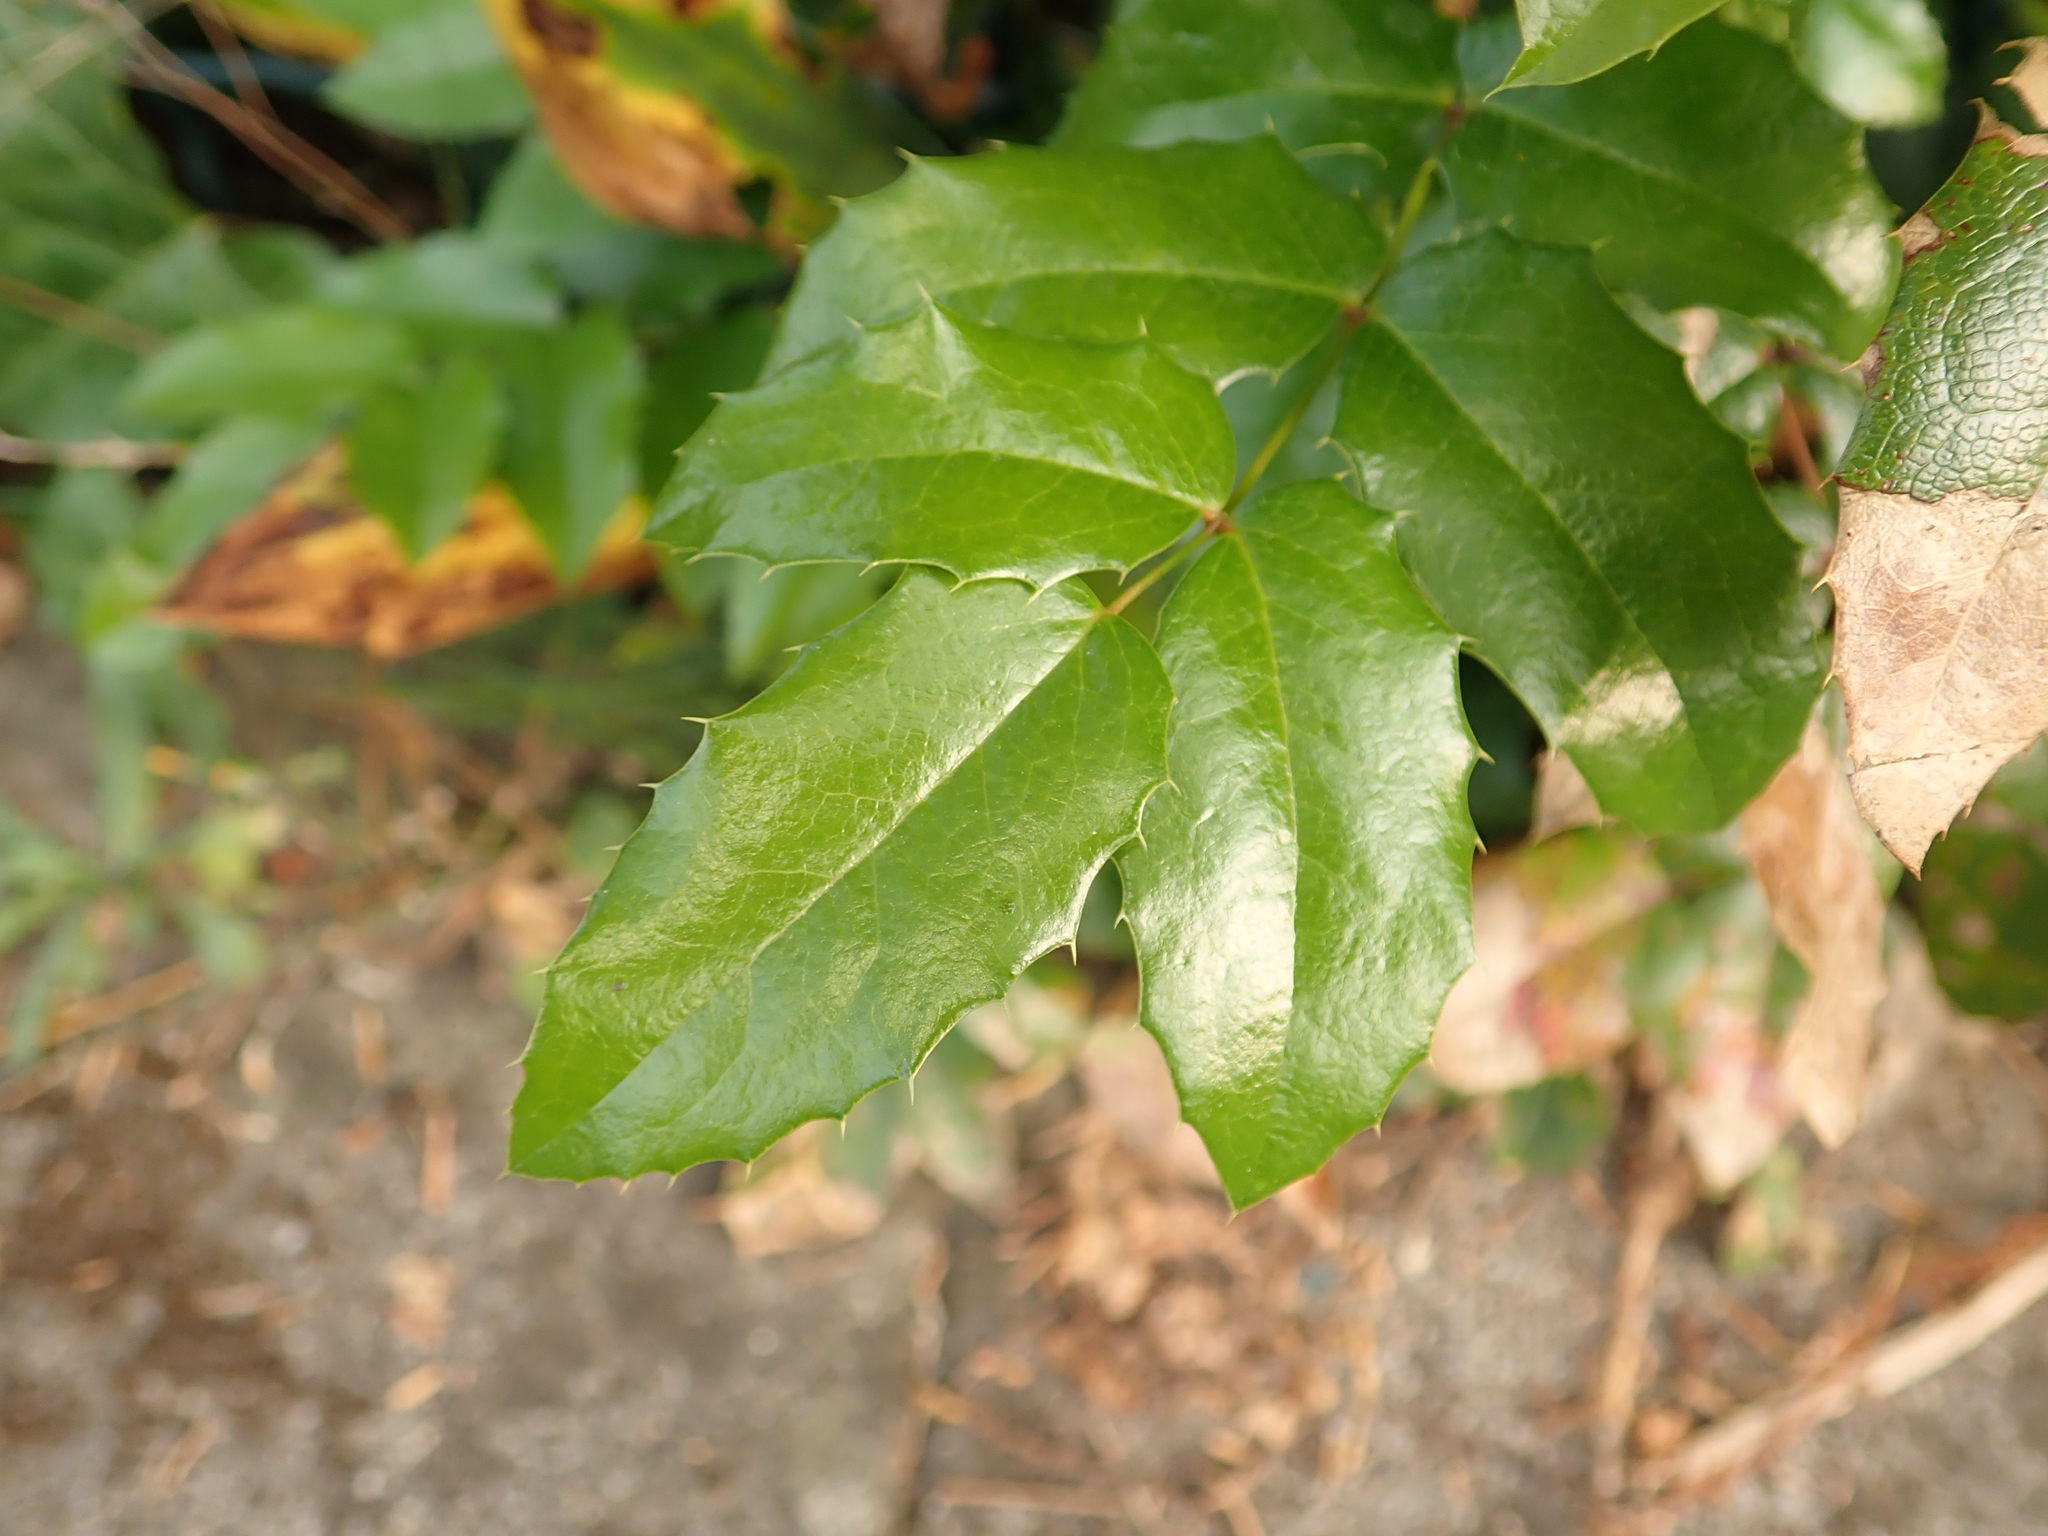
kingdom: Plantae
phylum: Tracheophyta
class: Magnoliopsida
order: Ranunculales
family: Berberidaceae
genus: Mahonia
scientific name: Mahonia aquifolium
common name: Oregon-grape
